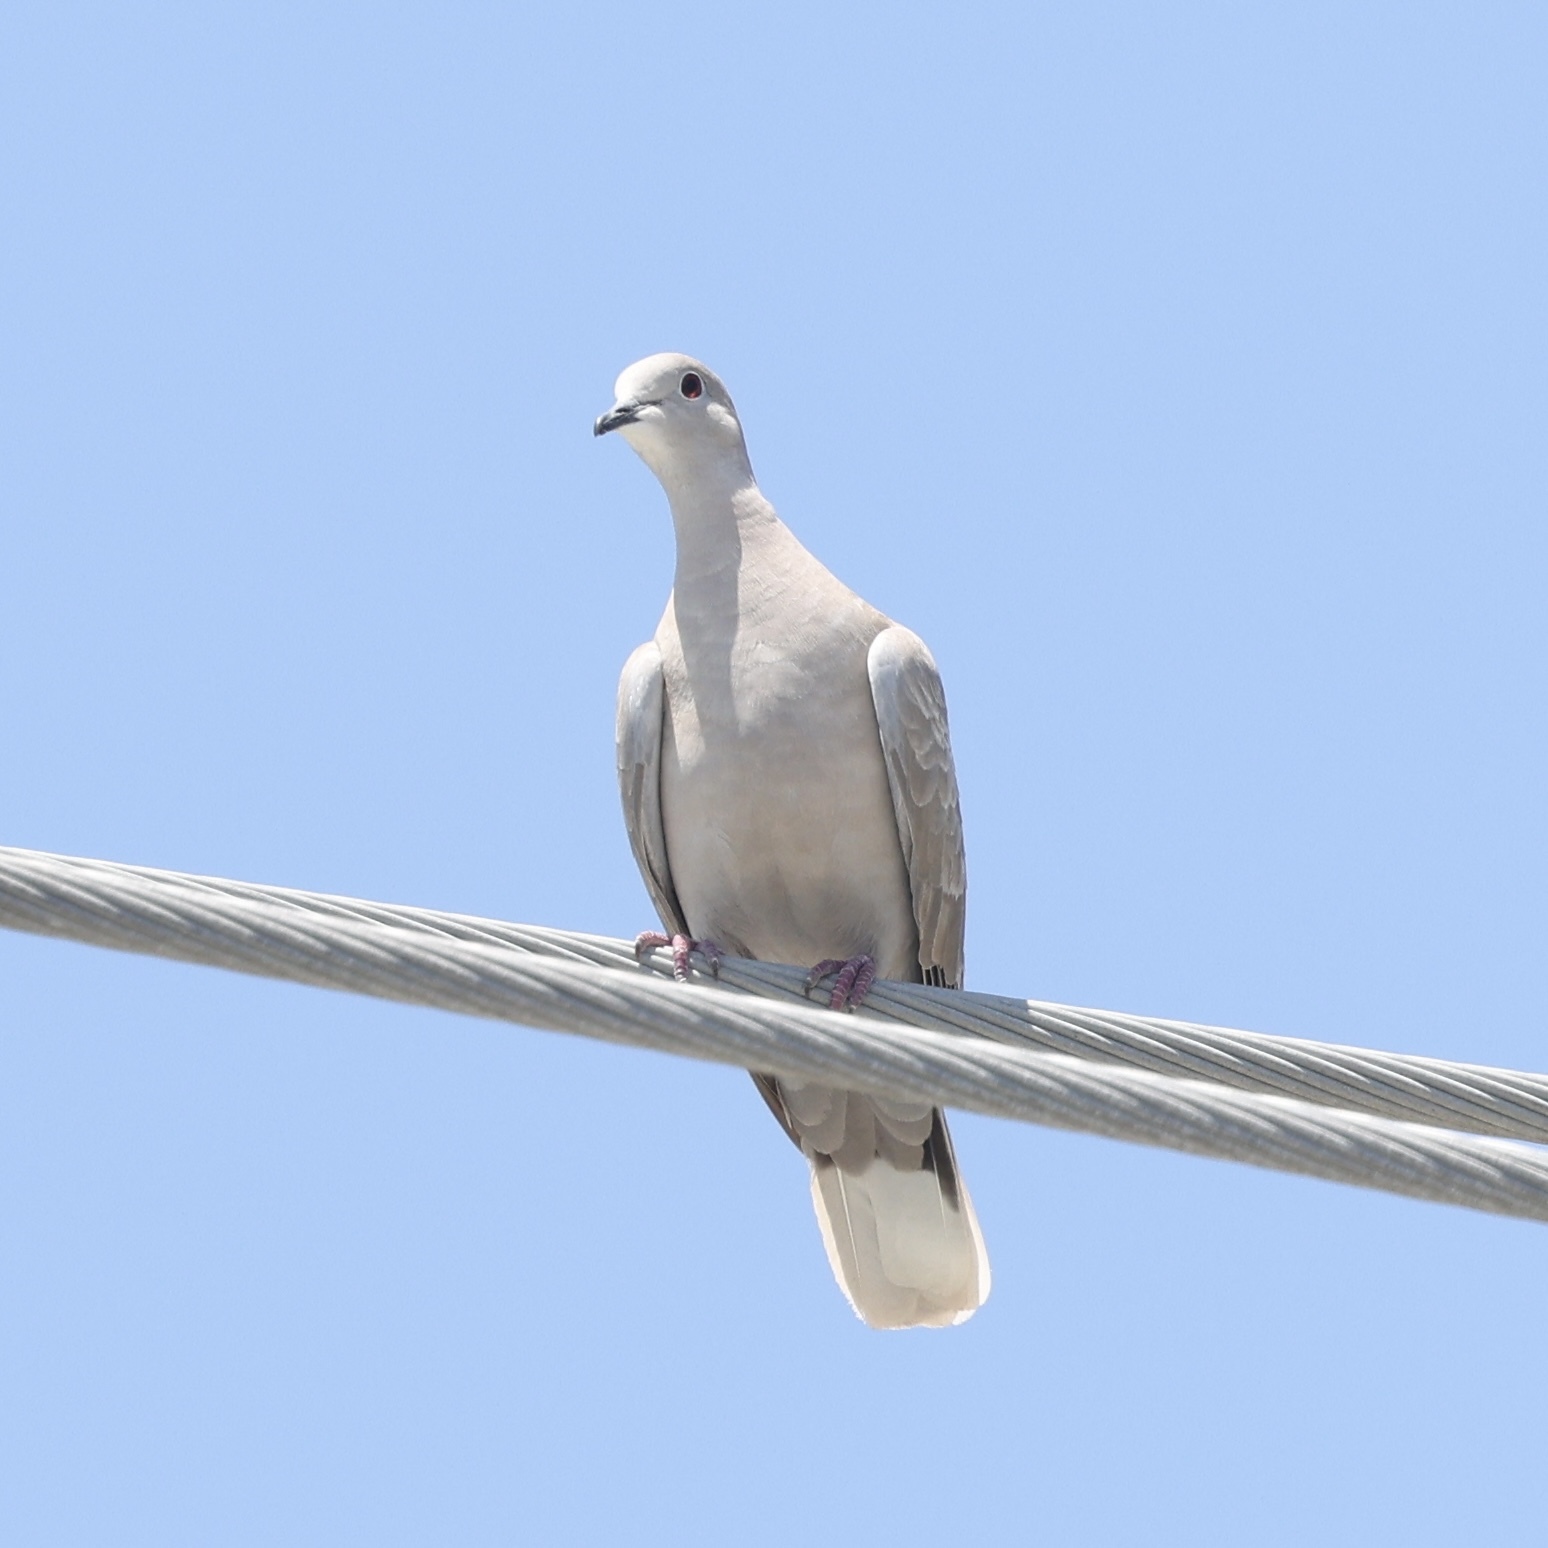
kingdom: Animalia
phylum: Chordata
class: Aves
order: Columbiformes
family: Columbidae
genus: Streptopelia
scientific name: Streptopelia decaocto
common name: Eurasian collared dove
